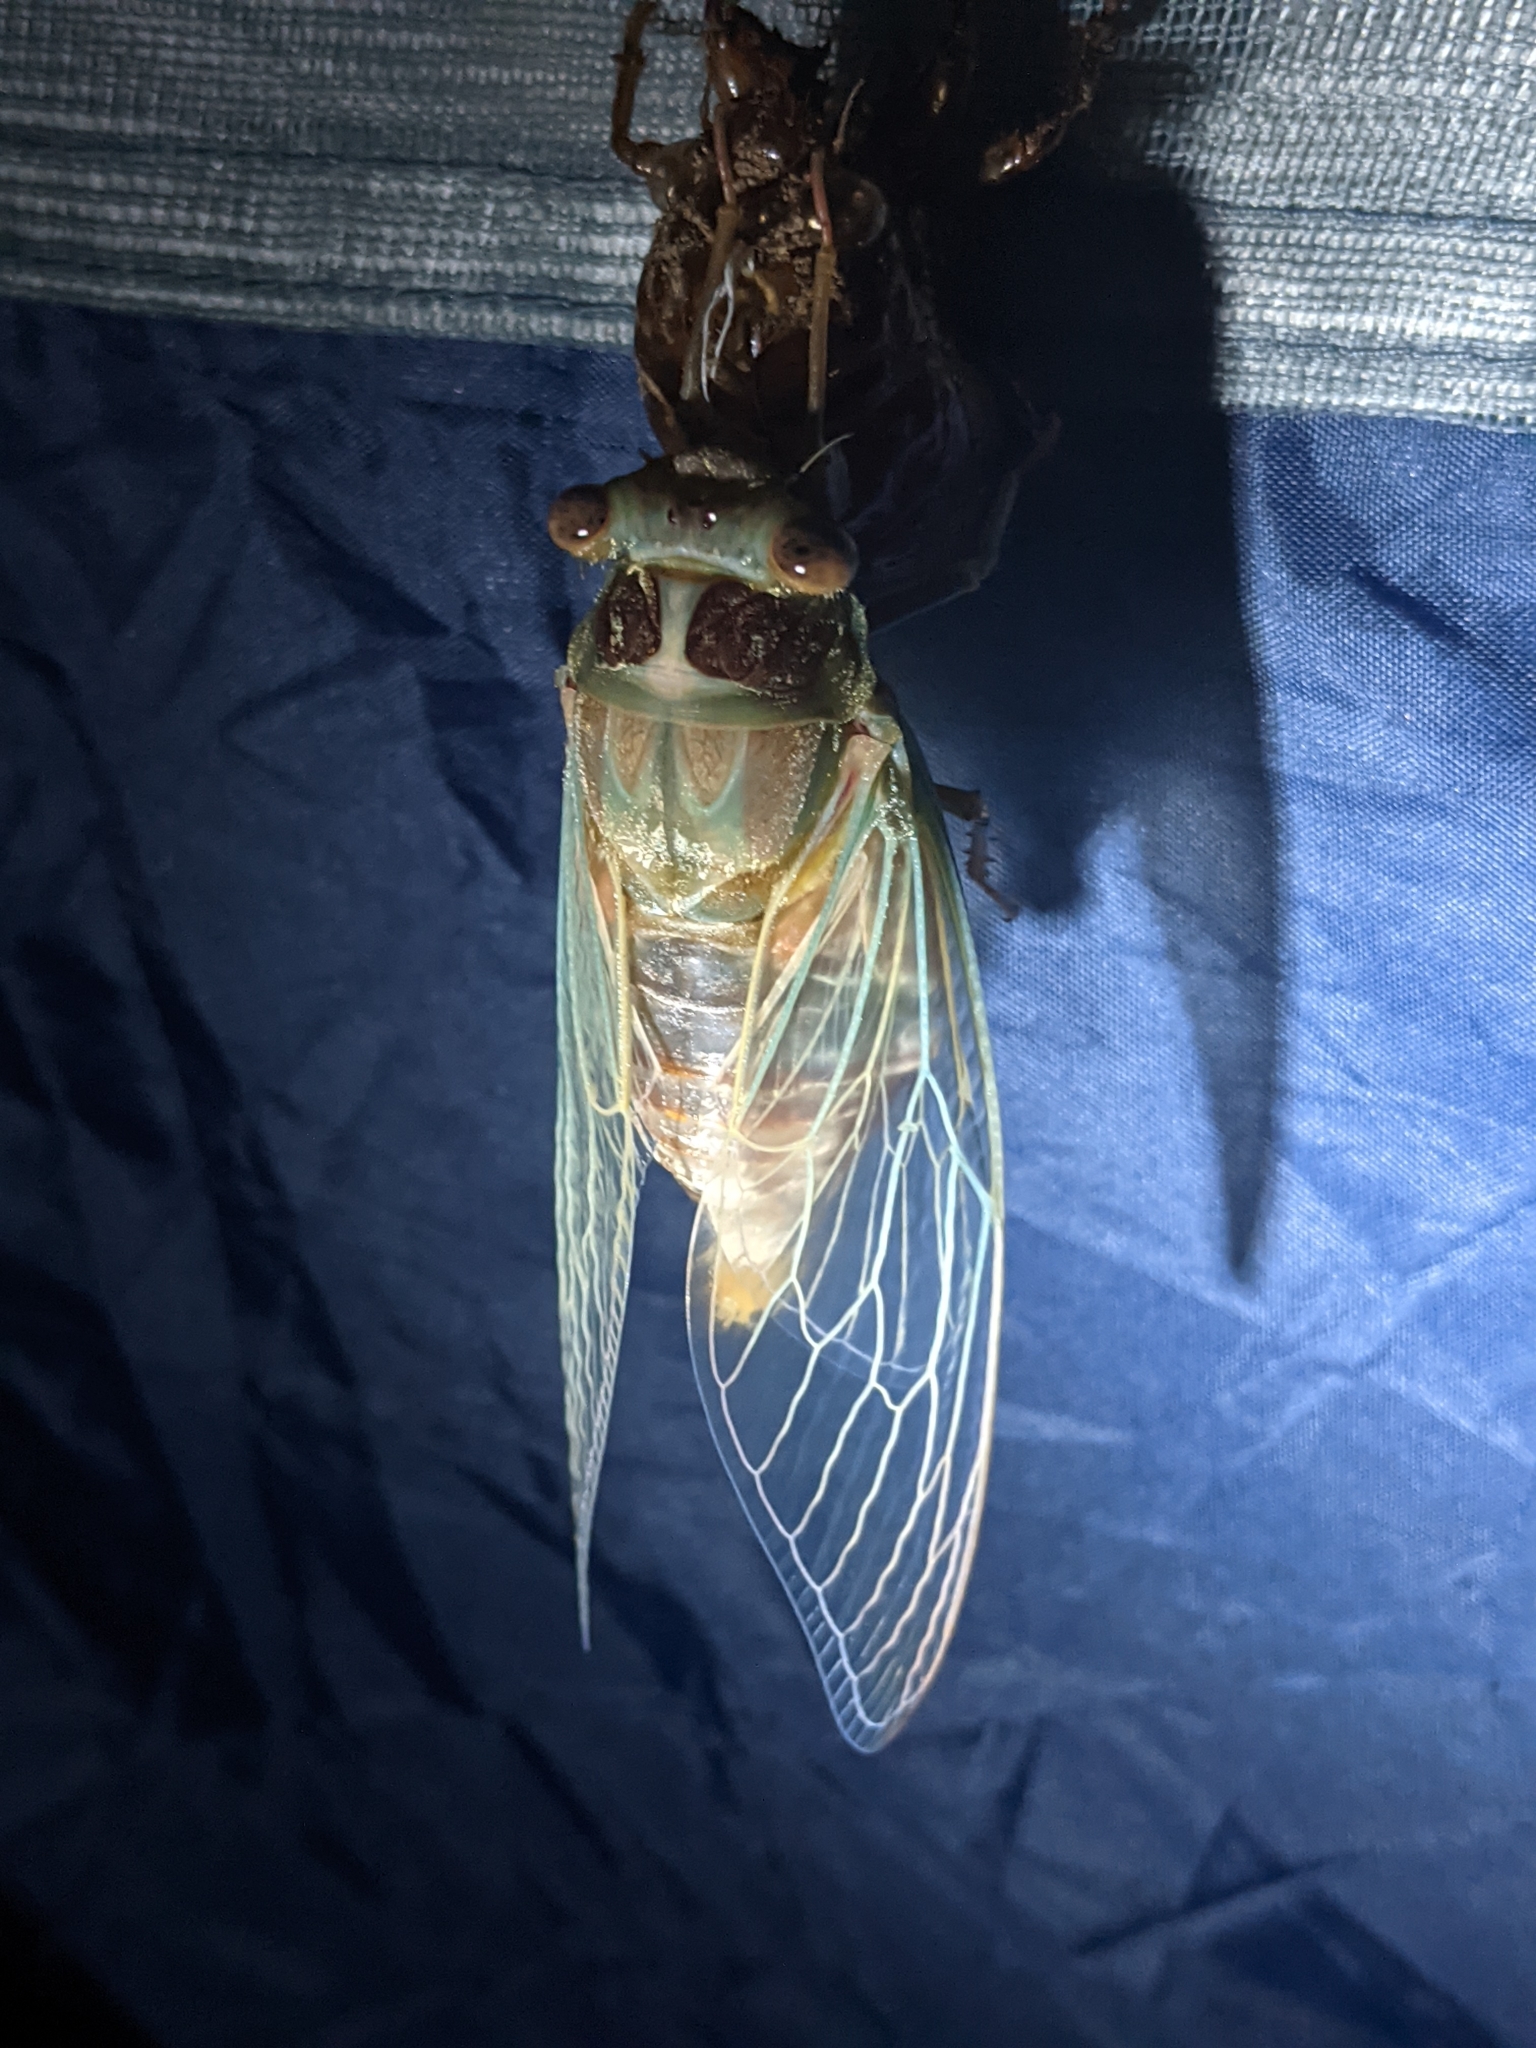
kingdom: Animalia
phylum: Arthropoda
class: Insecta
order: Hemiptera
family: Cicadidae
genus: Henicopsaltria
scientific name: Henicopsaltria eydouxii
